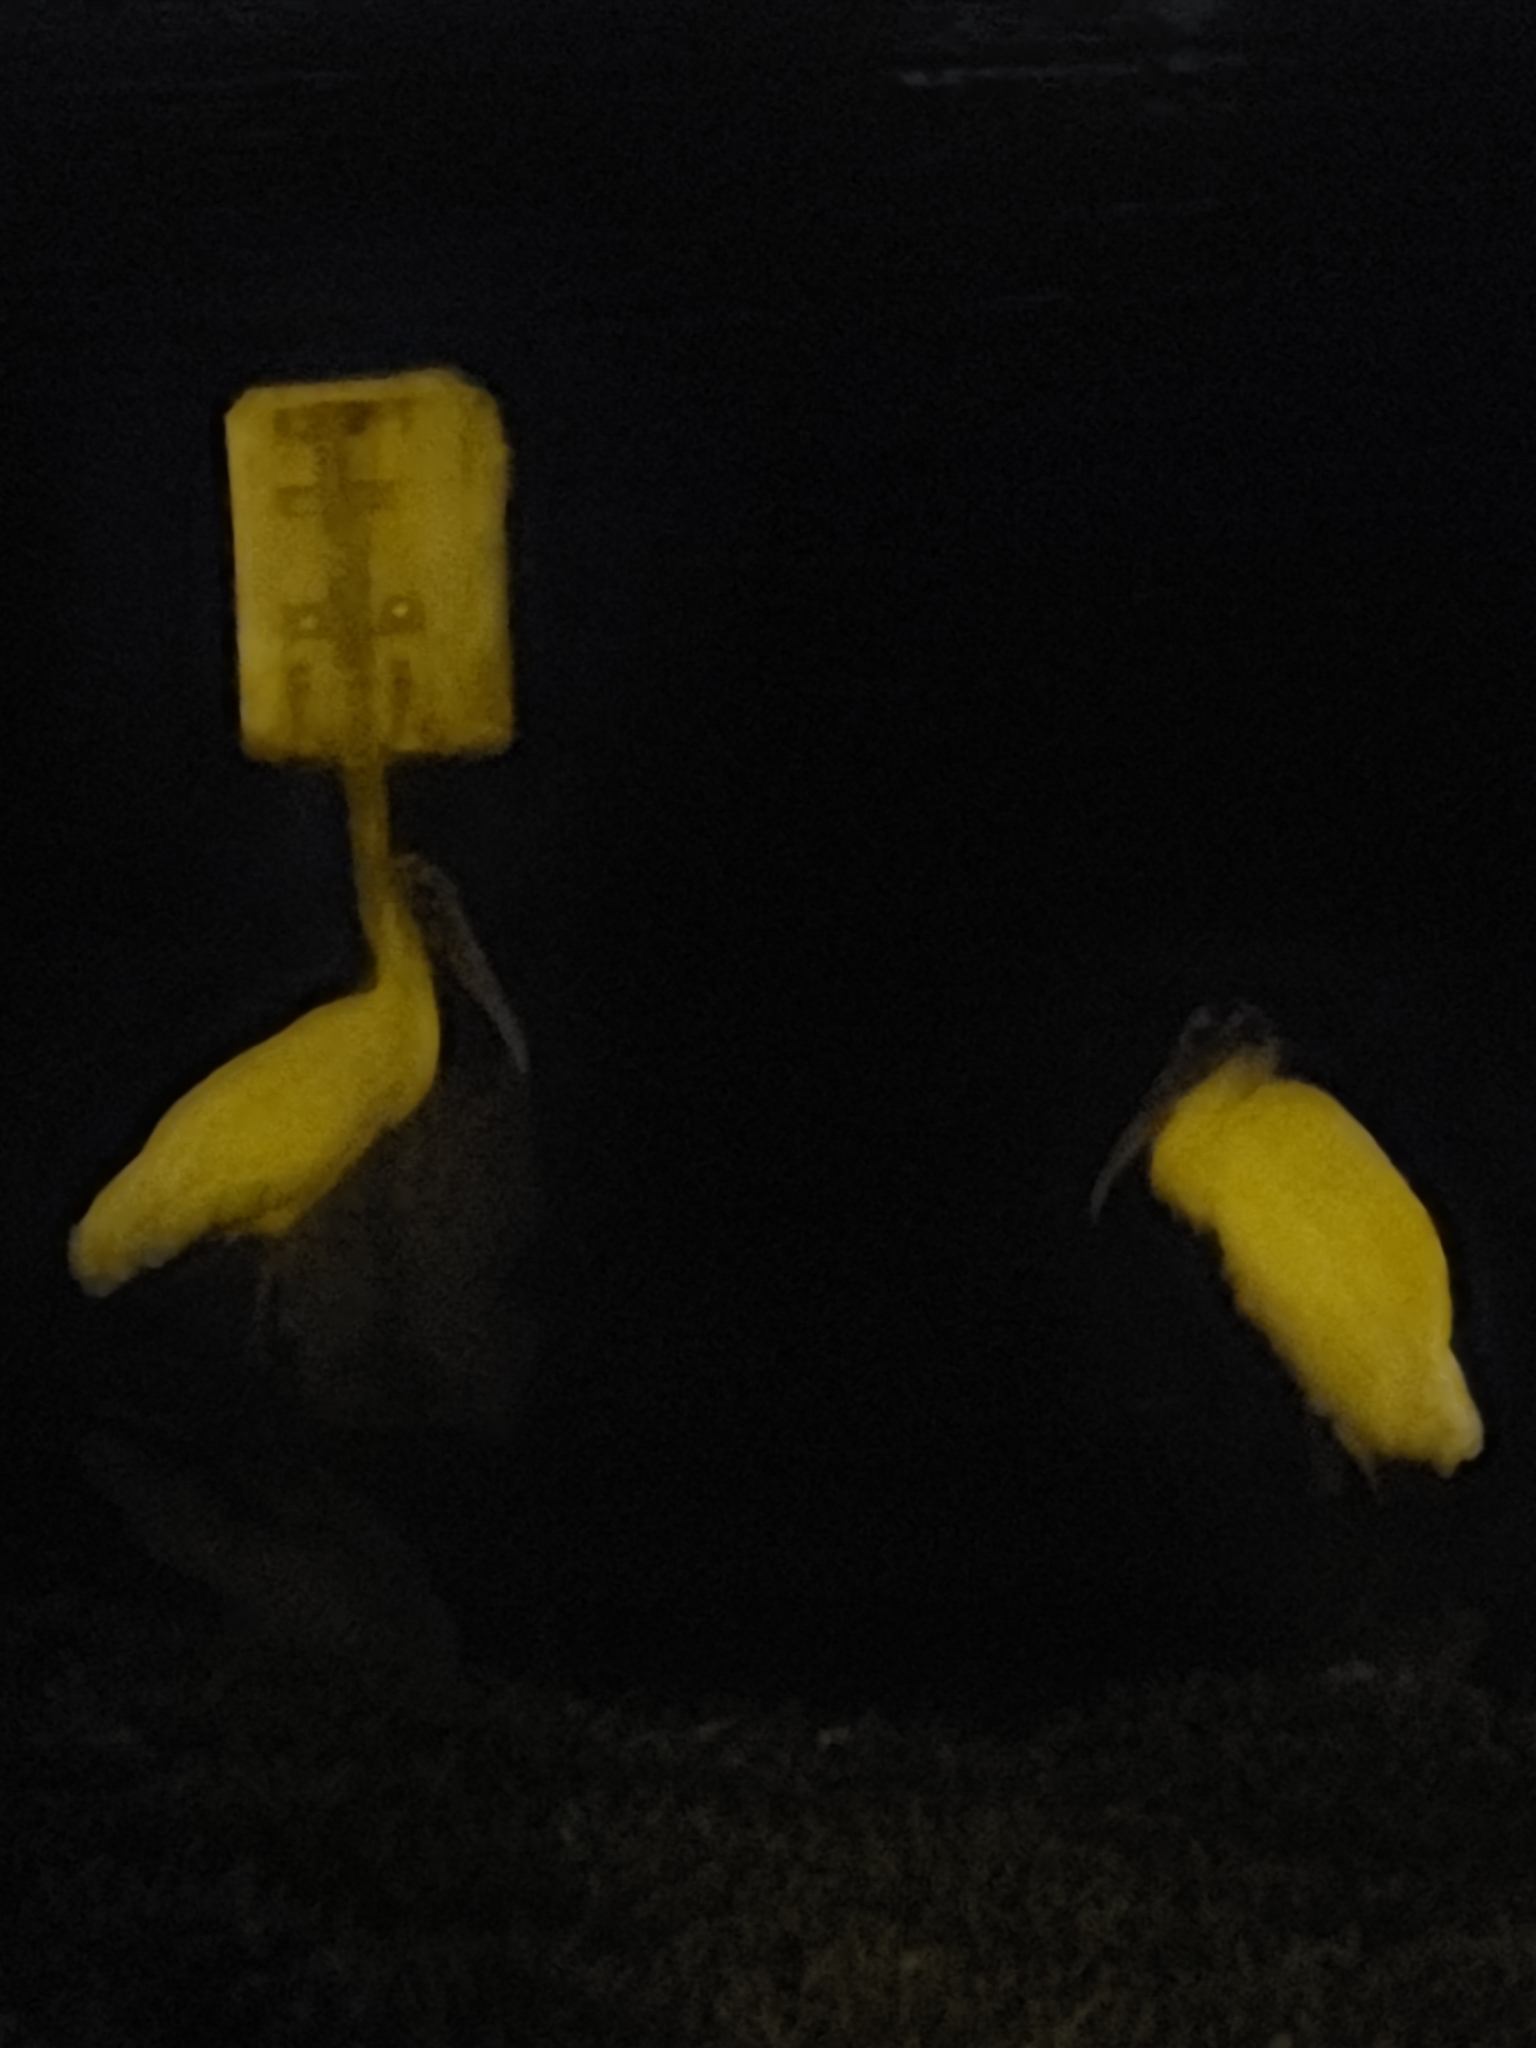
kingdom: Animalia
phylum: Chordata
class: Aves
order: Ciconiiformes
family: Ciconiidae
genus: Mycteria
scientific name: Mycteria americana
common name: Wood stork
